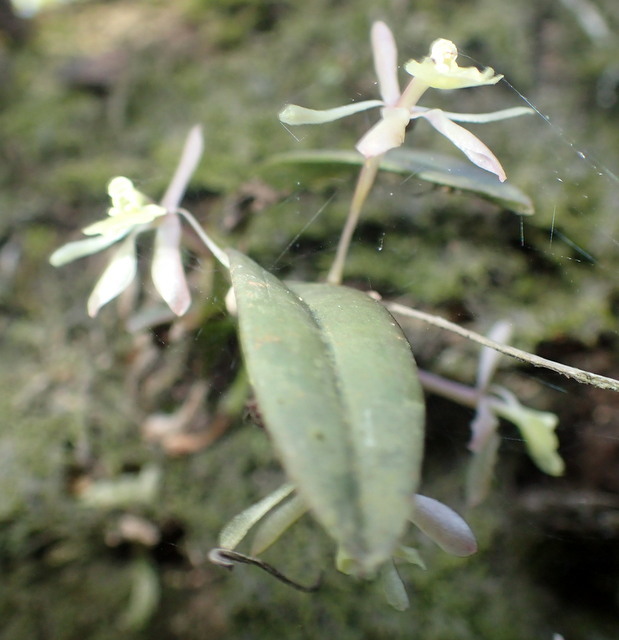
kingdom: Plantae
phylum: Tracheophyta
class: Liliopsida
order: Asparagales
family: Orchidaceae
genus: Epidendrum
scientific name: Epidendrum conopseum
